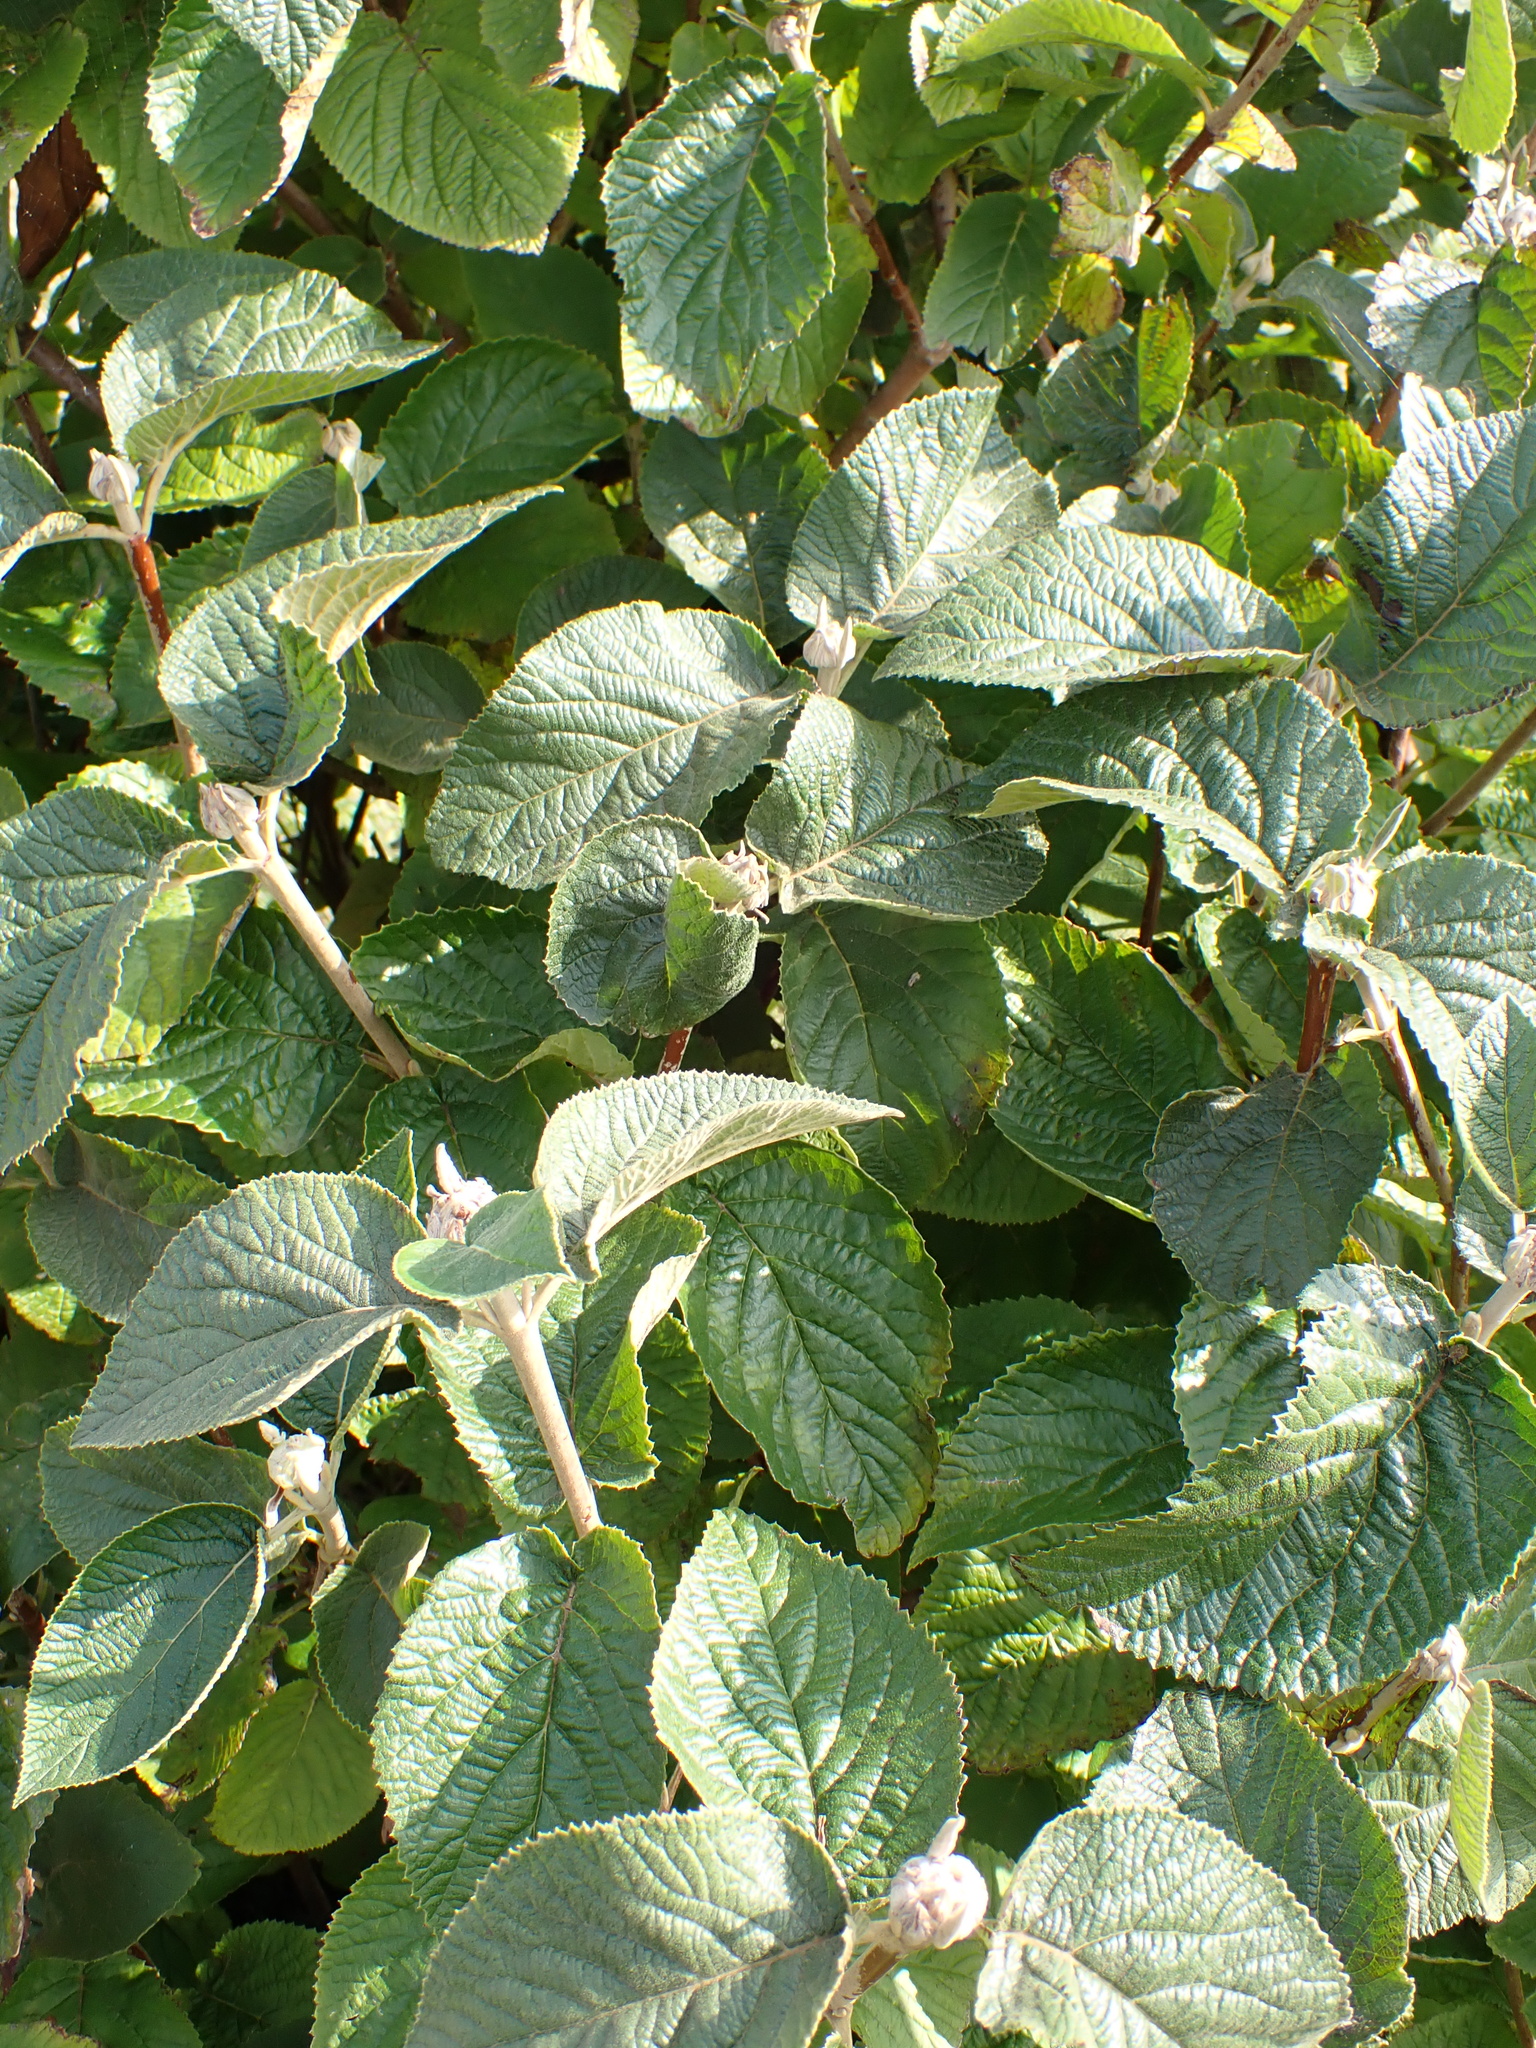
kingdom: Plantae
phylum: Tracheophyta
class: Magnoliopsida
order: Dipsacales
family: Viburnaceae
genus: Viburnum
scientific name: Viburnum lantana
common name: Wayfaring tree
